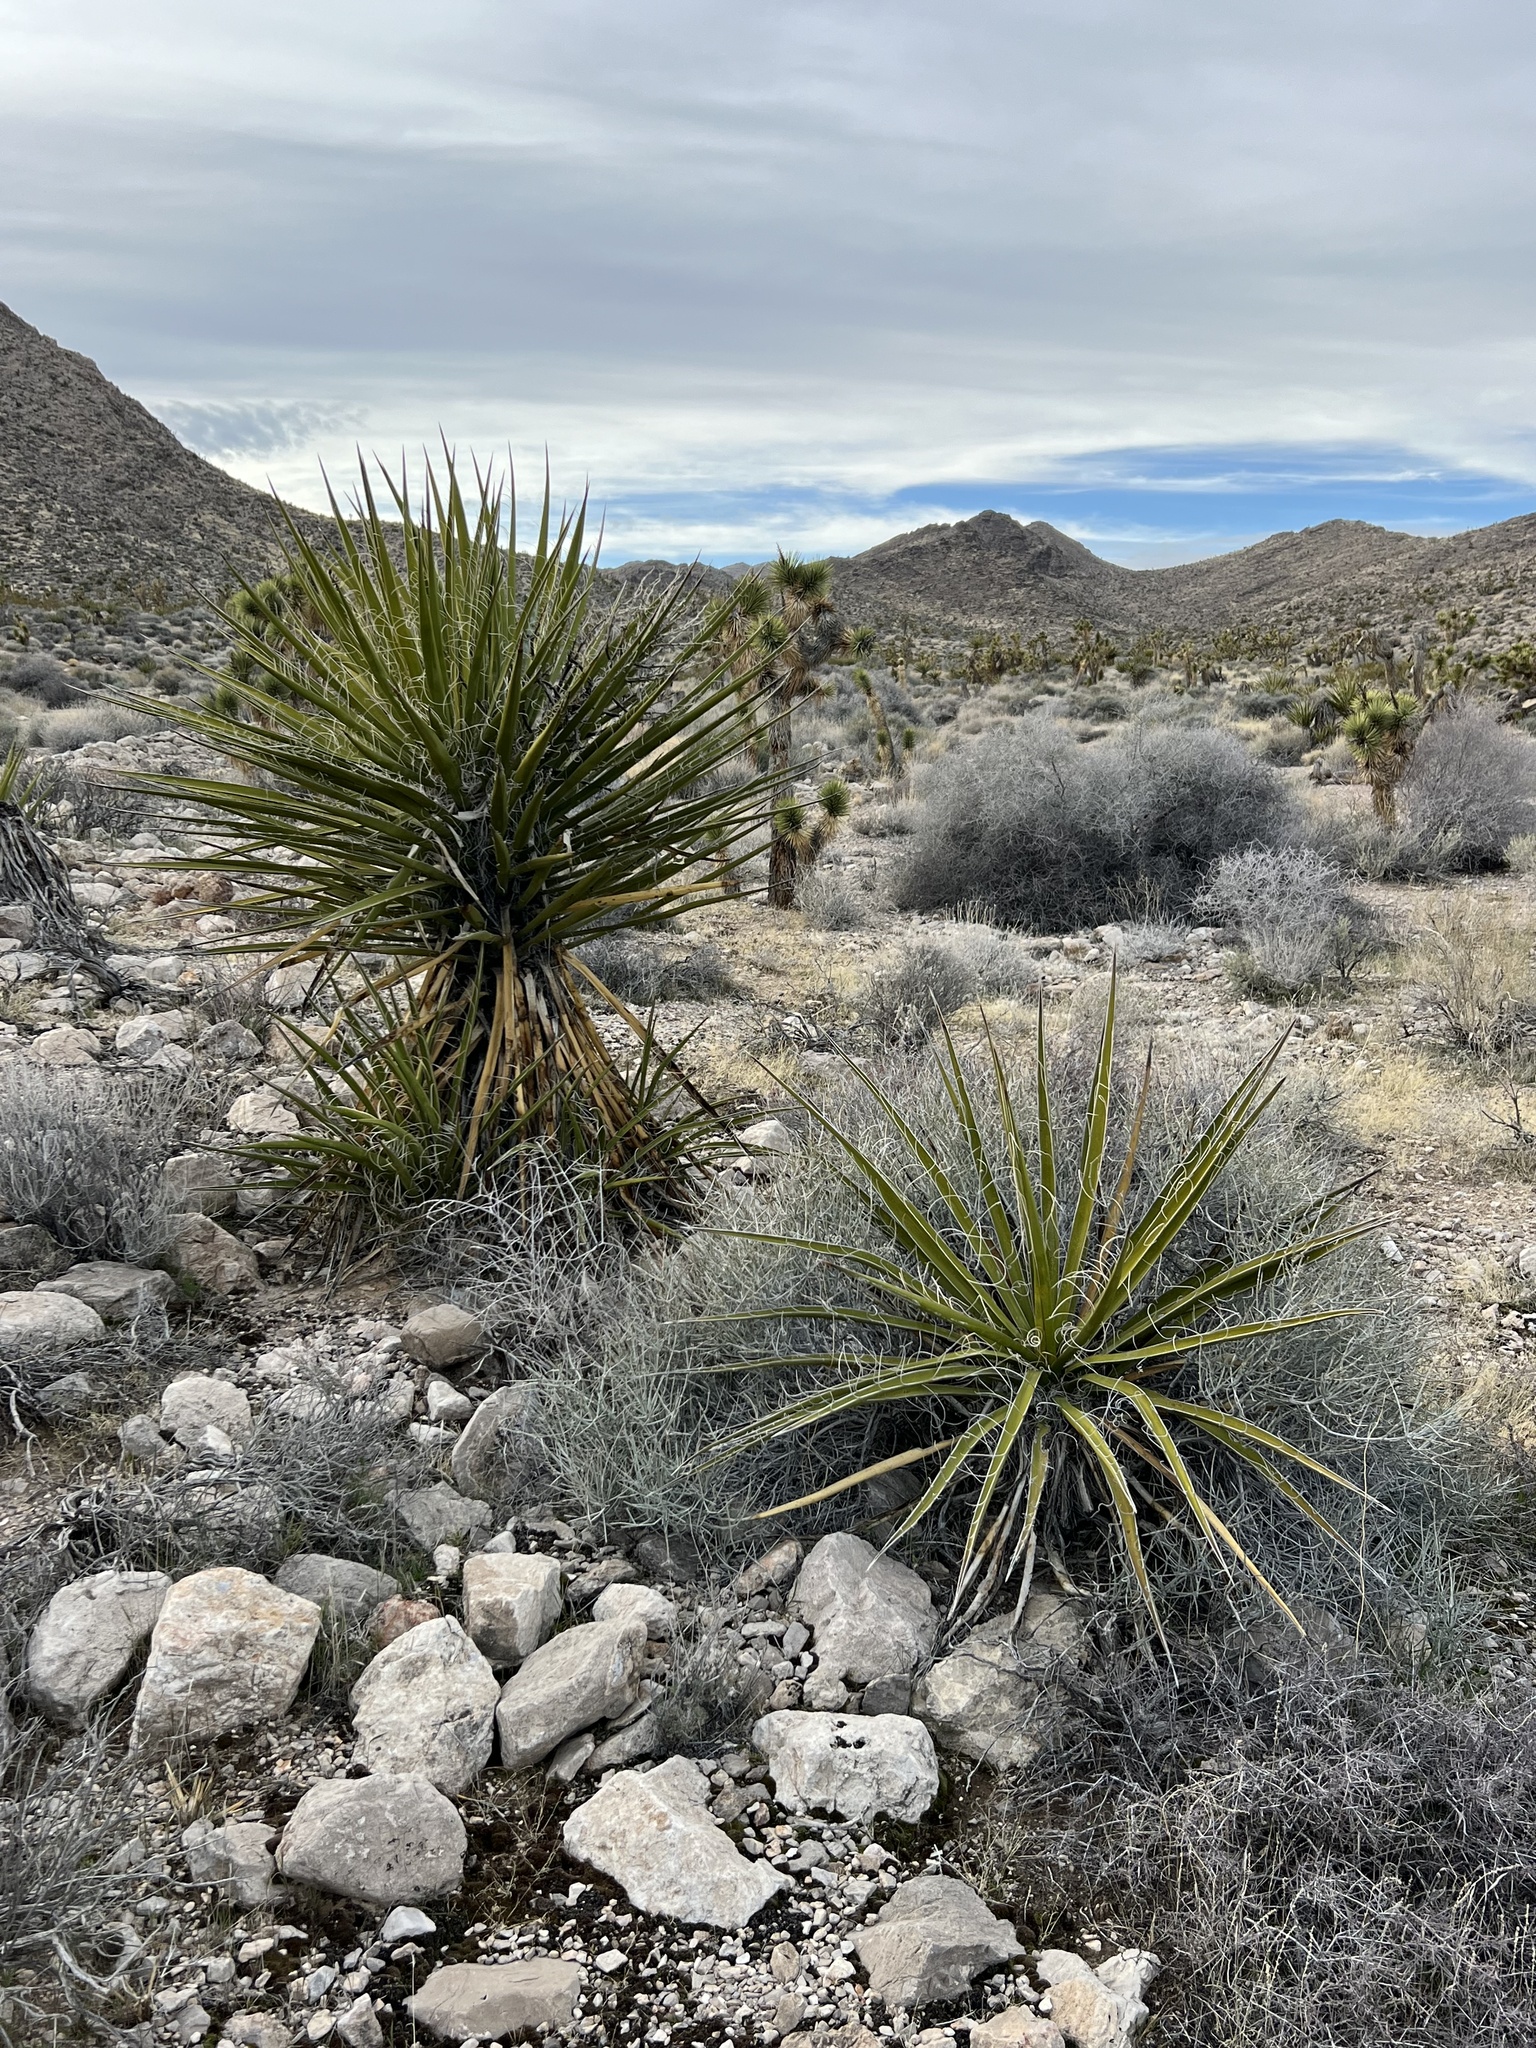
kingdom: Plantae
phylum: Tracheophyta
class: Liliopsida
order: Asparagales
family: Asparagaceae
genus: Yucca
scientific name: Yucca schidigera
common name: Mojave yucca
